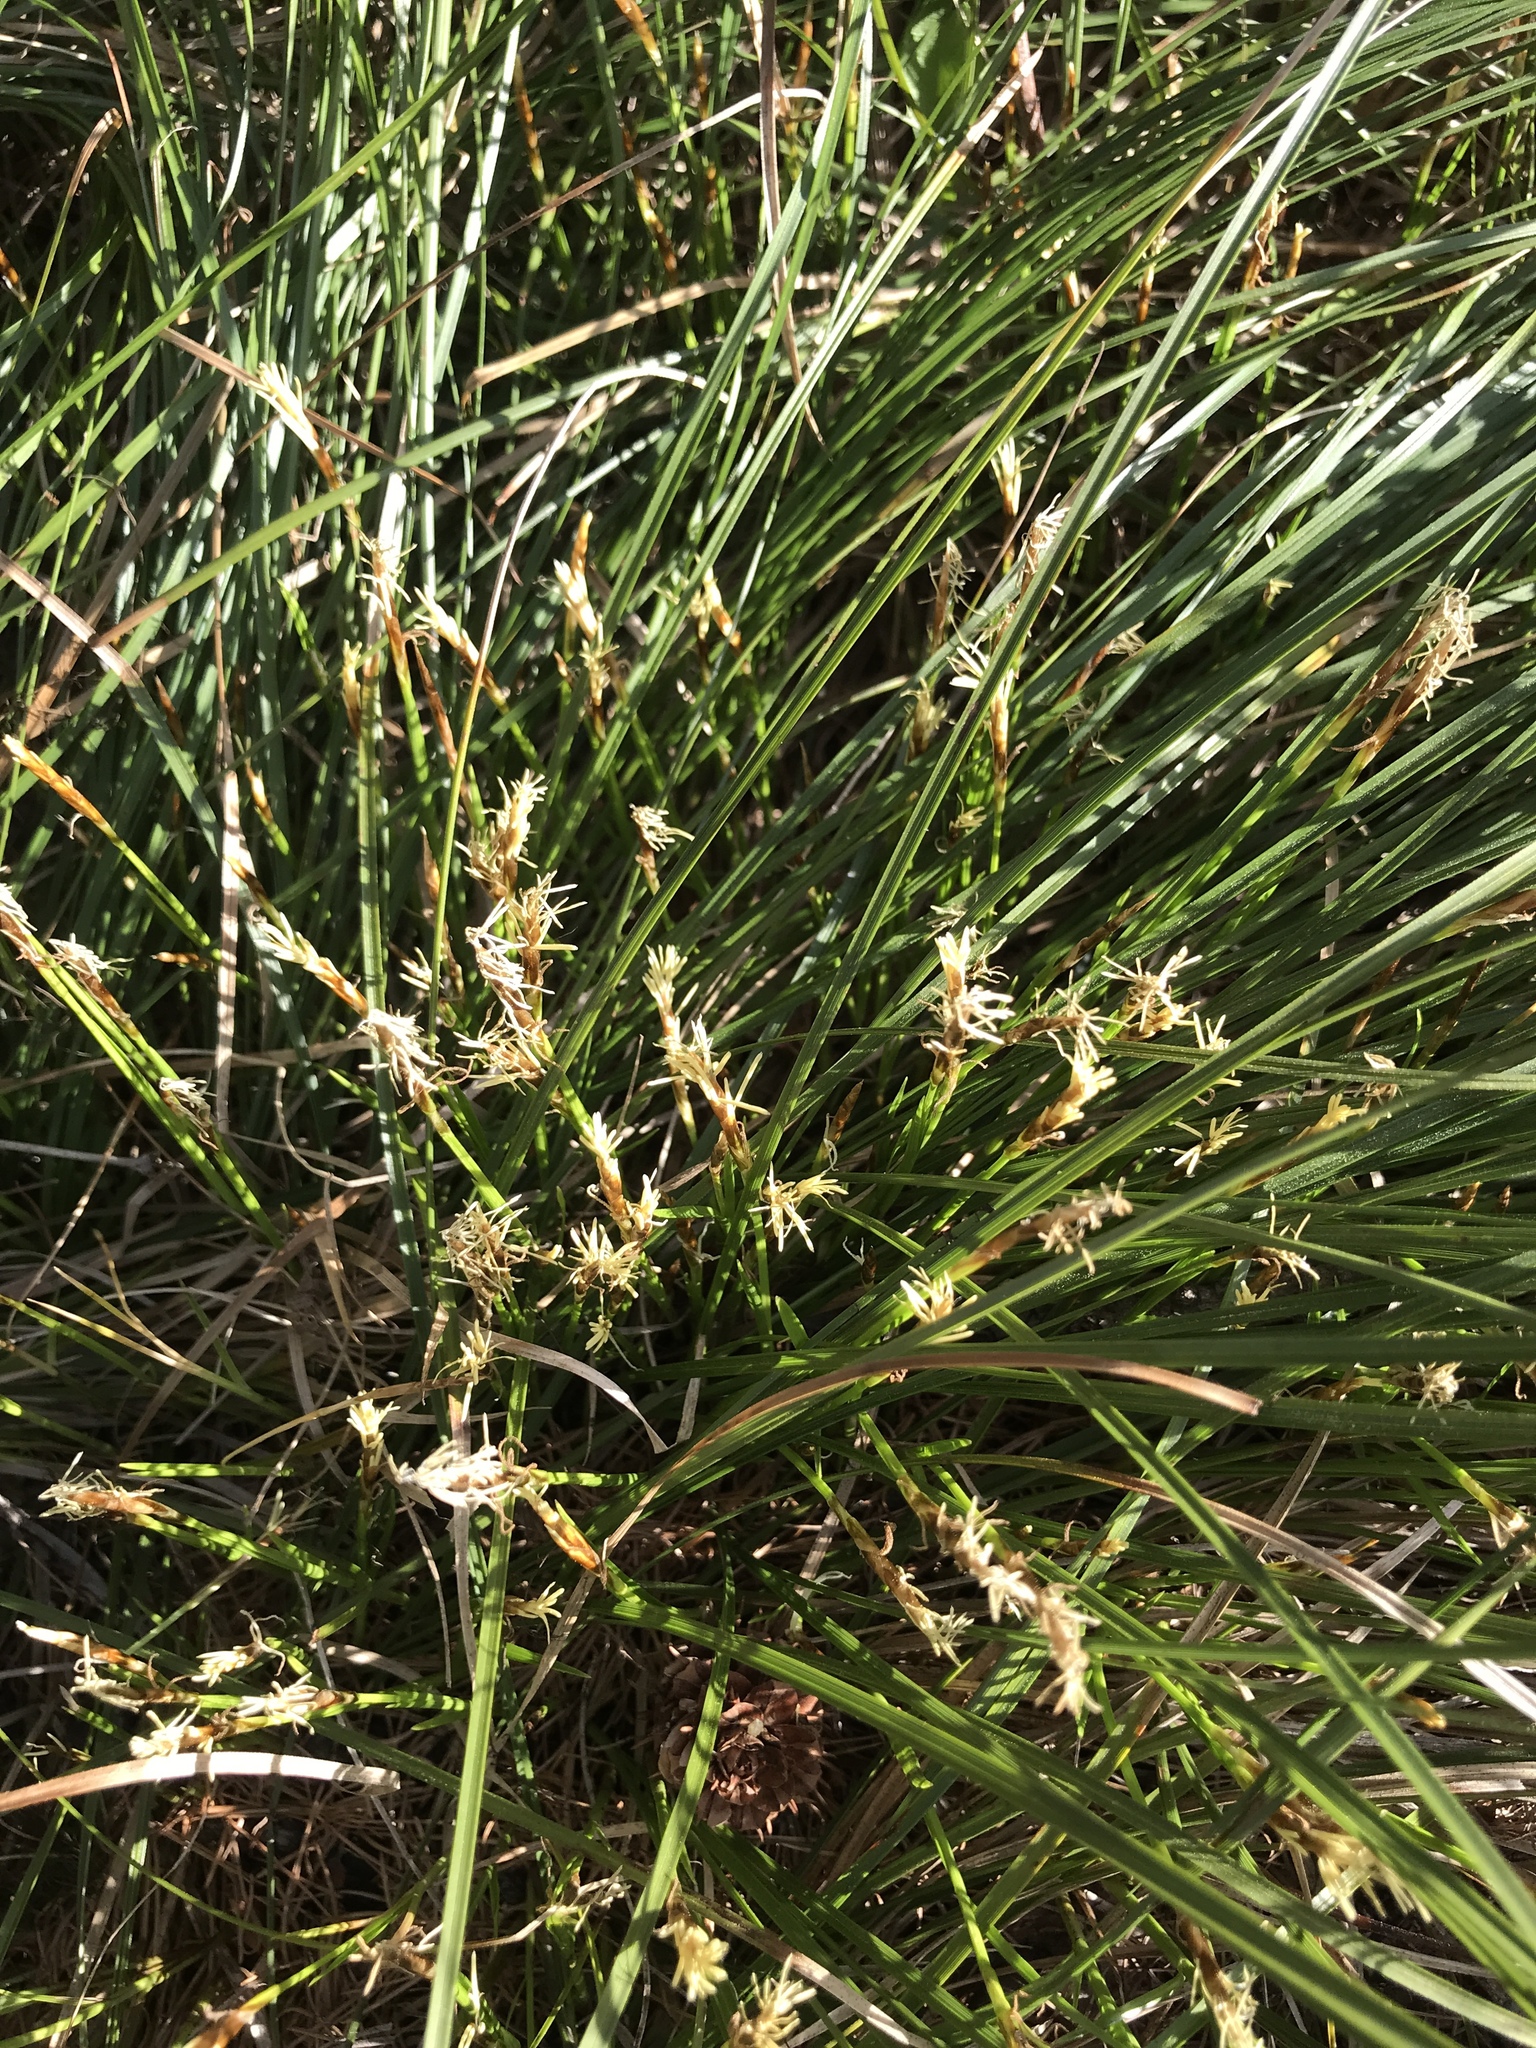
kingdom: Plantae
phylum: Tracheophyta
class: Liliopsida
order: Poales
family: Cyperaceae
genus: Carex
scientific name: Carex geyeri
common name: Elk sedge
